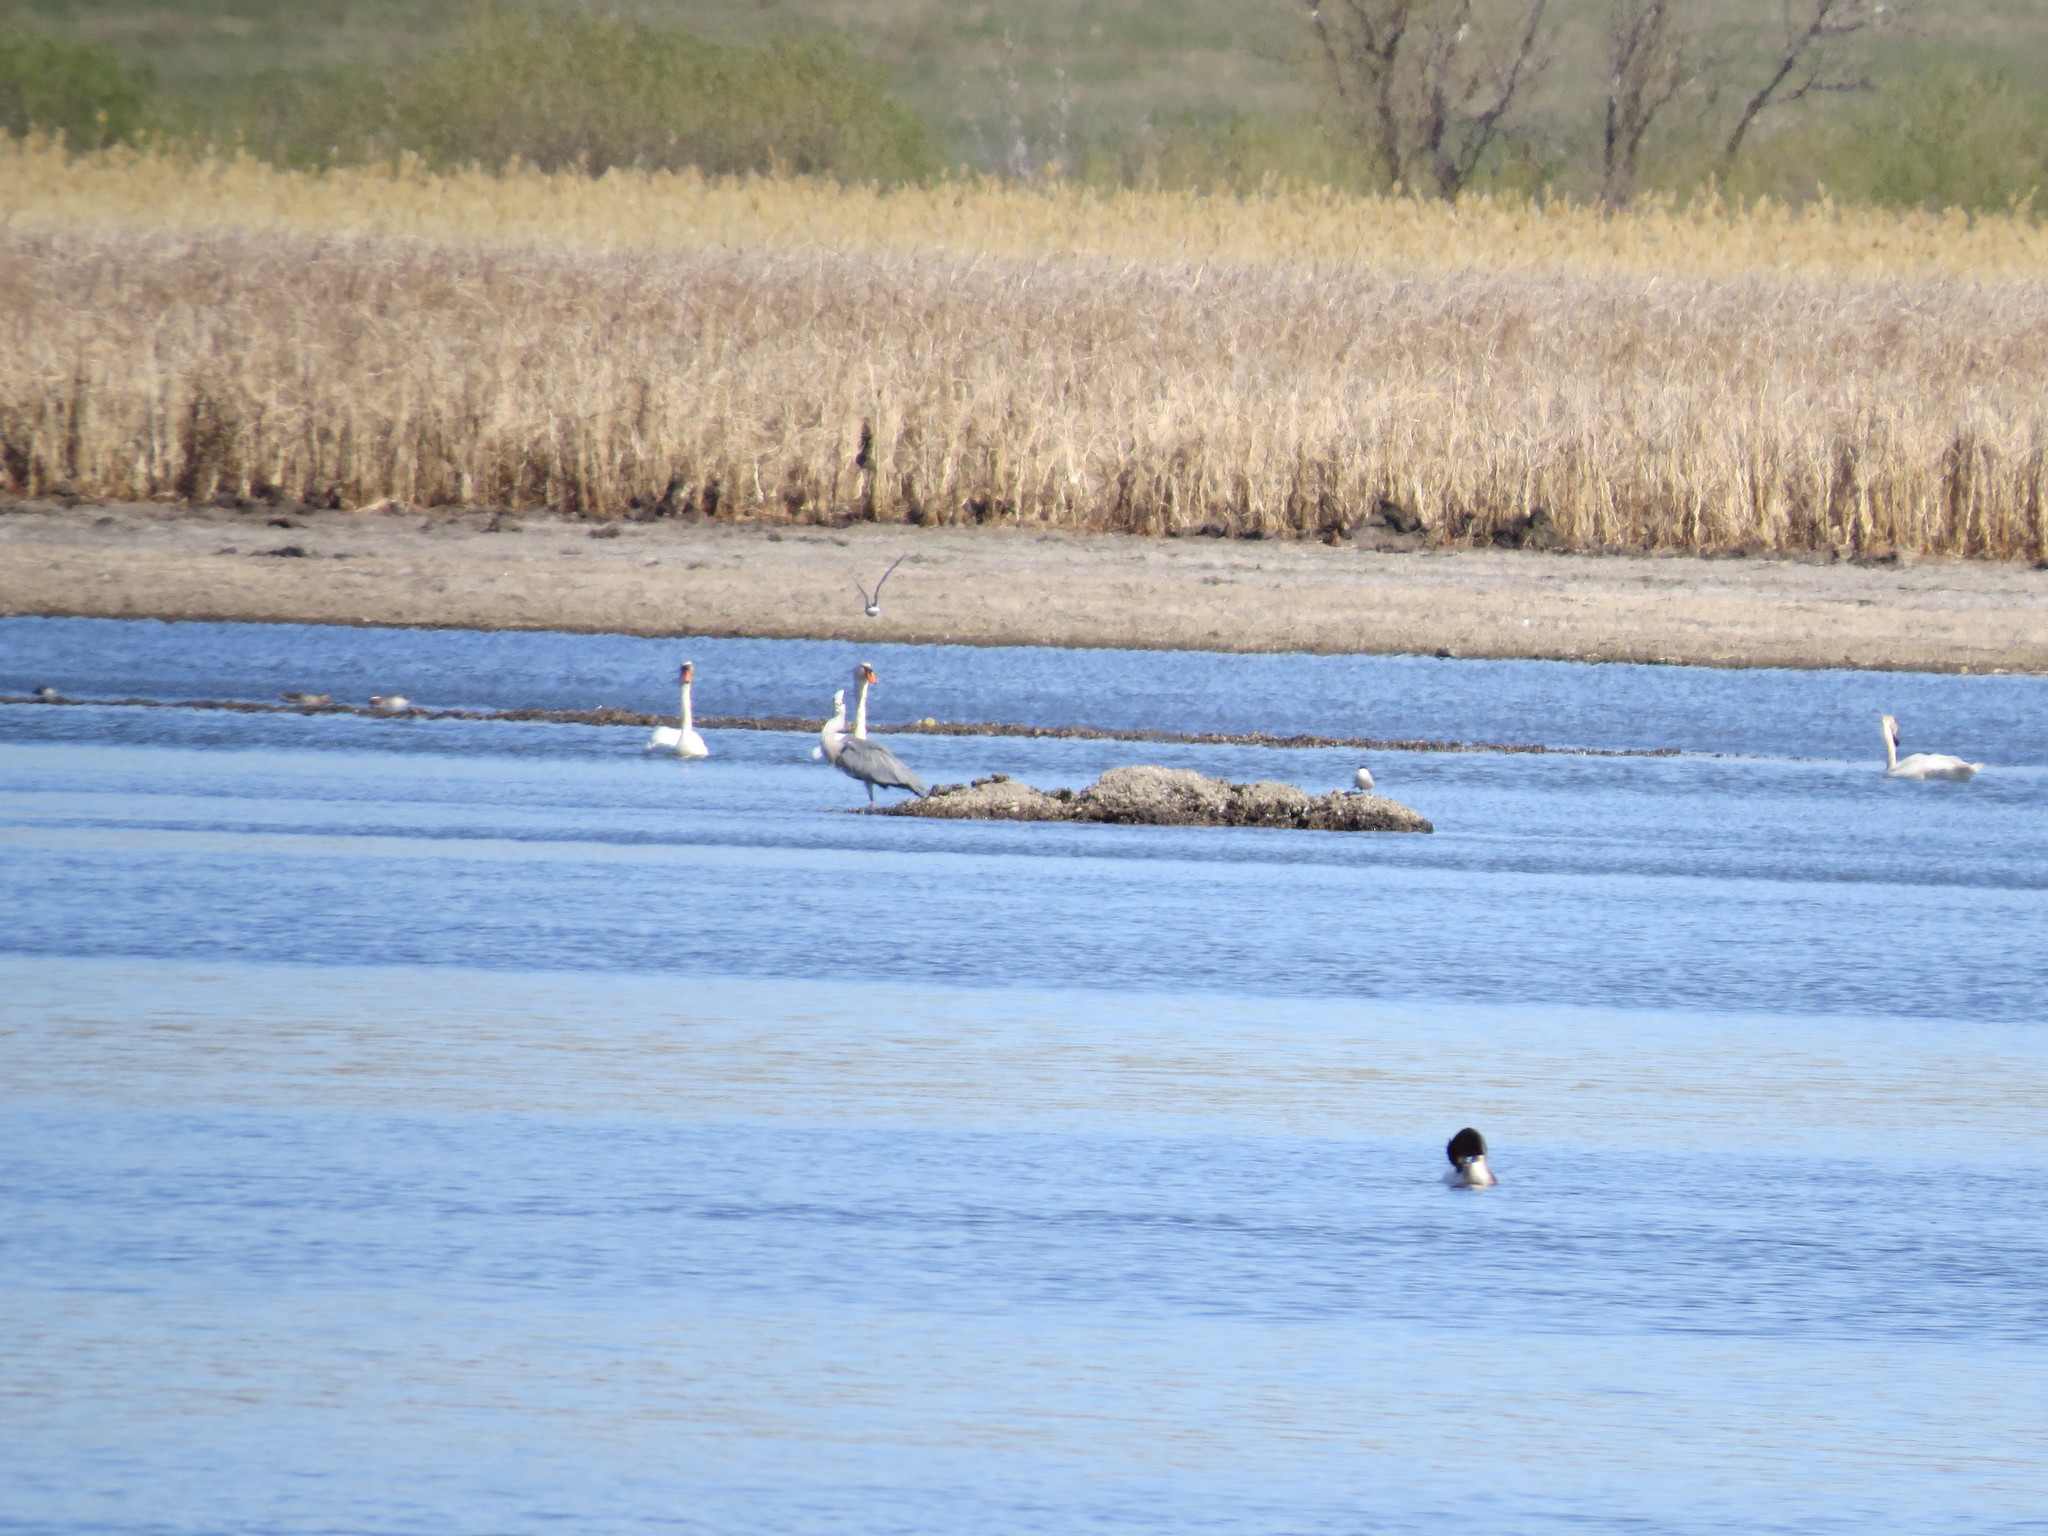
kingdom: Animalia
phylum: Chordata
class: Aves
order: Pelecaniformes
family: Ardeidae
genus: Ardea
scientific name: Ardea cinerea
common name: Grey heron
